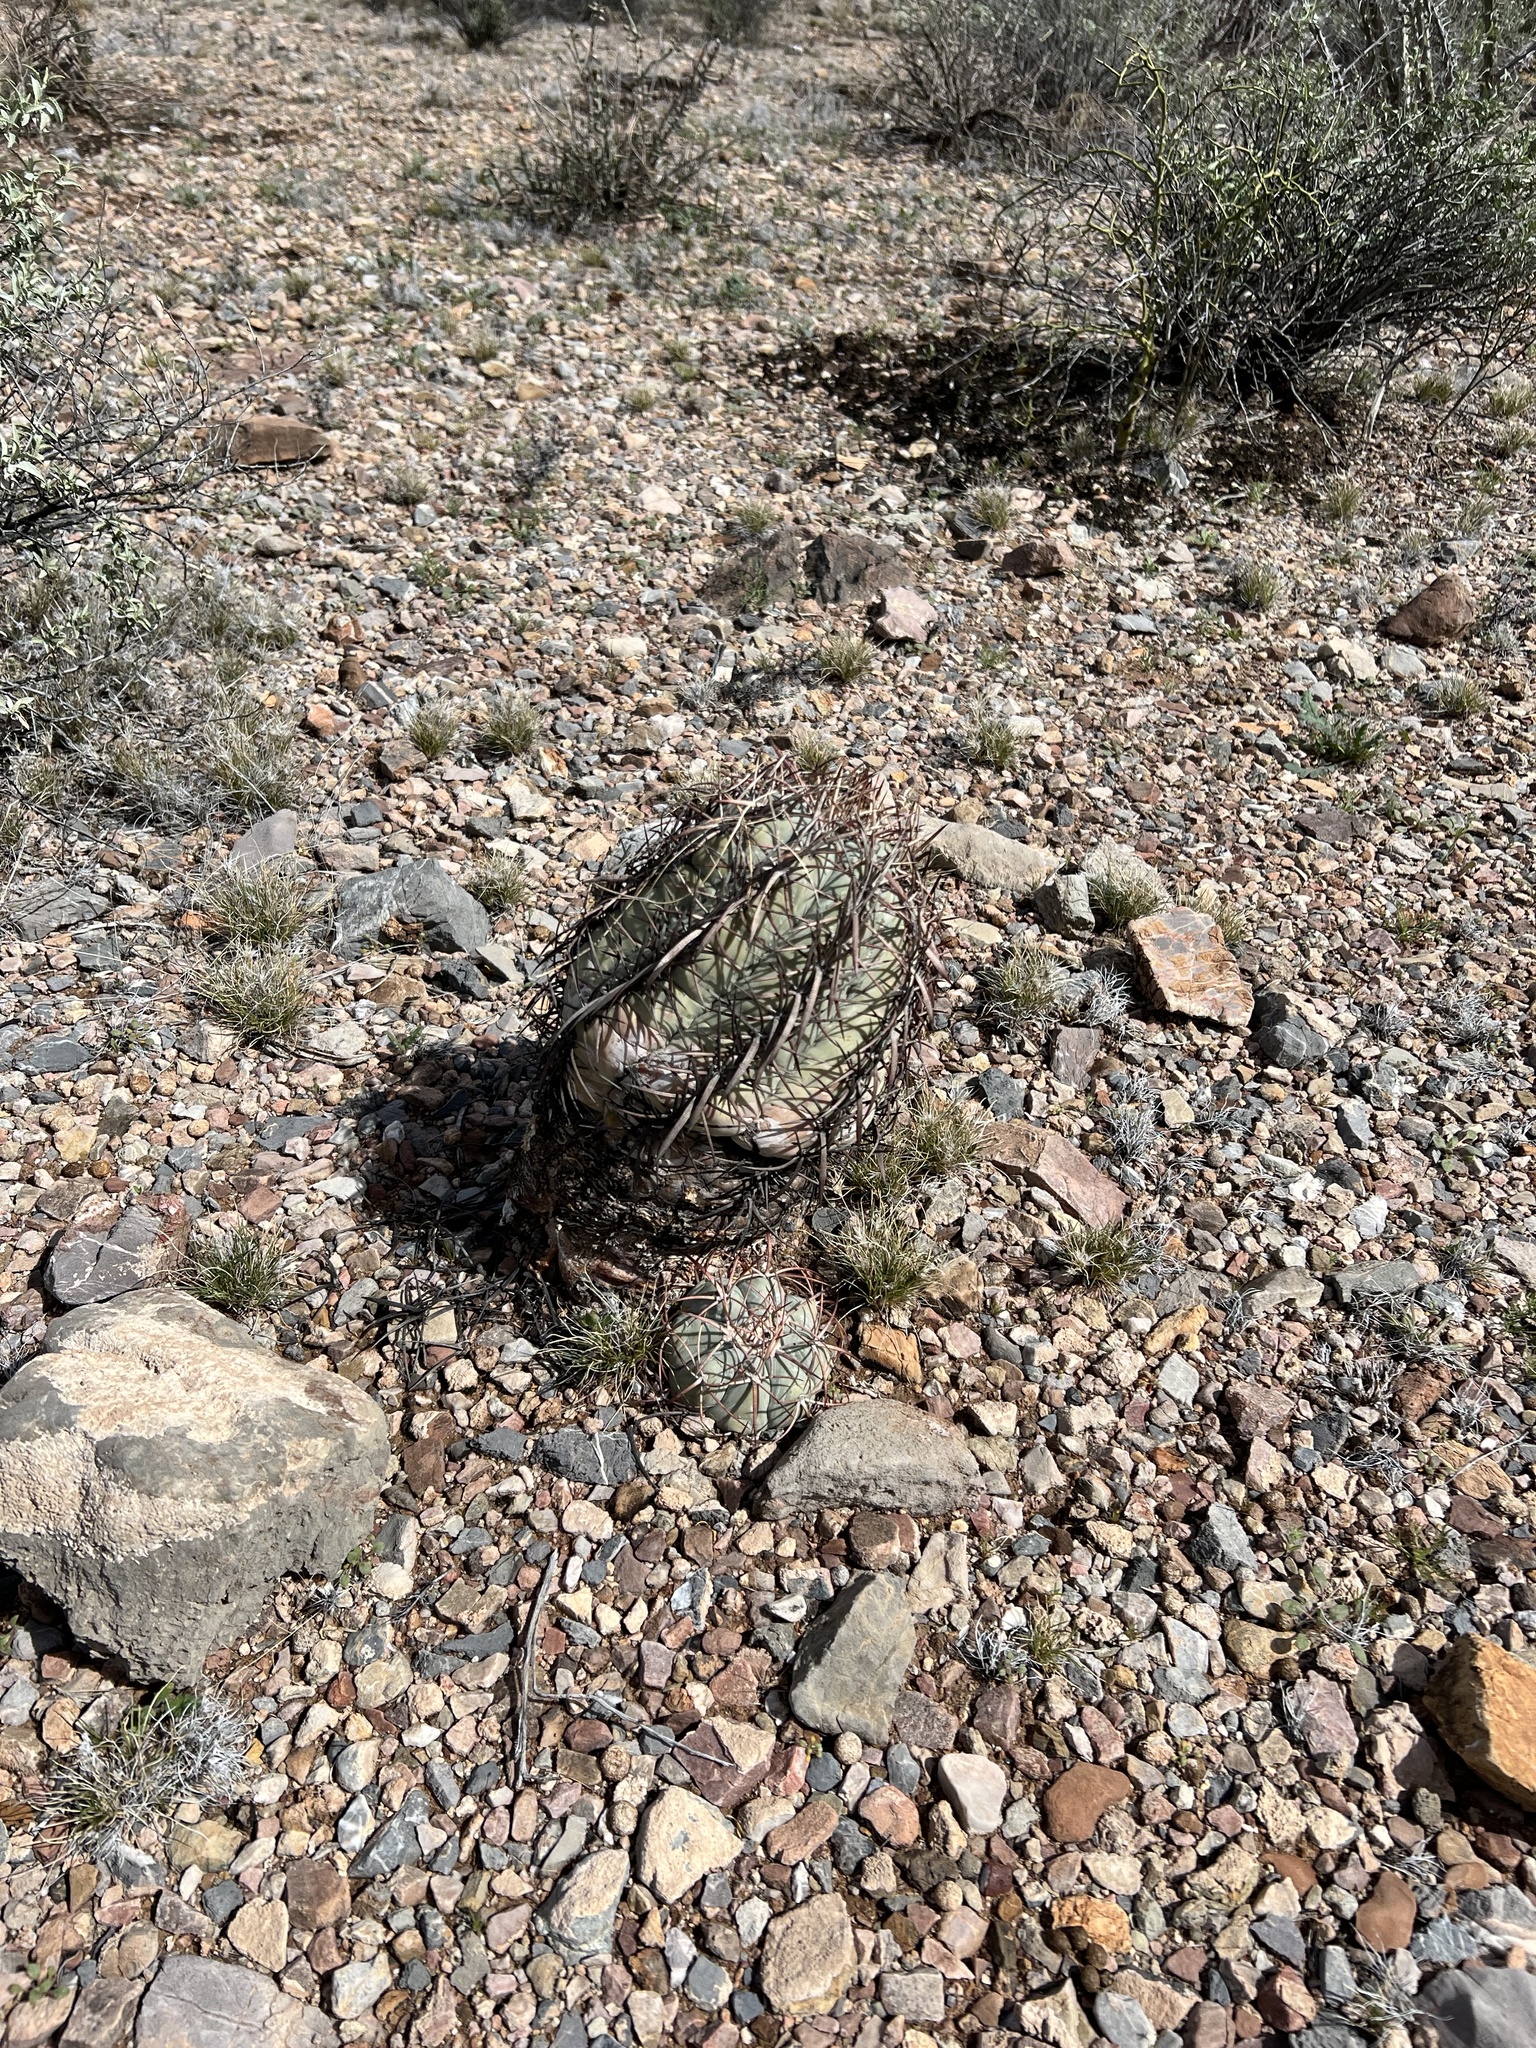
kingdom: Plantae
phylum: Tracheophyta
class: Magnoliopsida
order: Caryophyllales
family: Cactaceae
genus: Echinocactus
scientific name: Echinocactus horizonthalonius
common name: Devilshead
